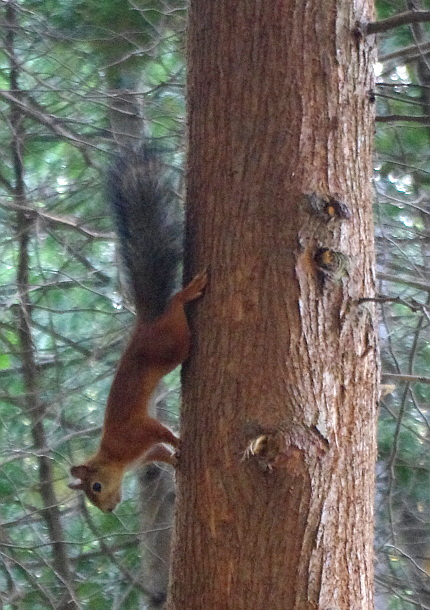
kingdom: Animalia
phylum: Chordata
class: Mammalia
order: Rodentia
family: Sciuridae
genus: Sciurus
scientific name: Sciurus vulgaris
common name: Eurasian red squirrel
